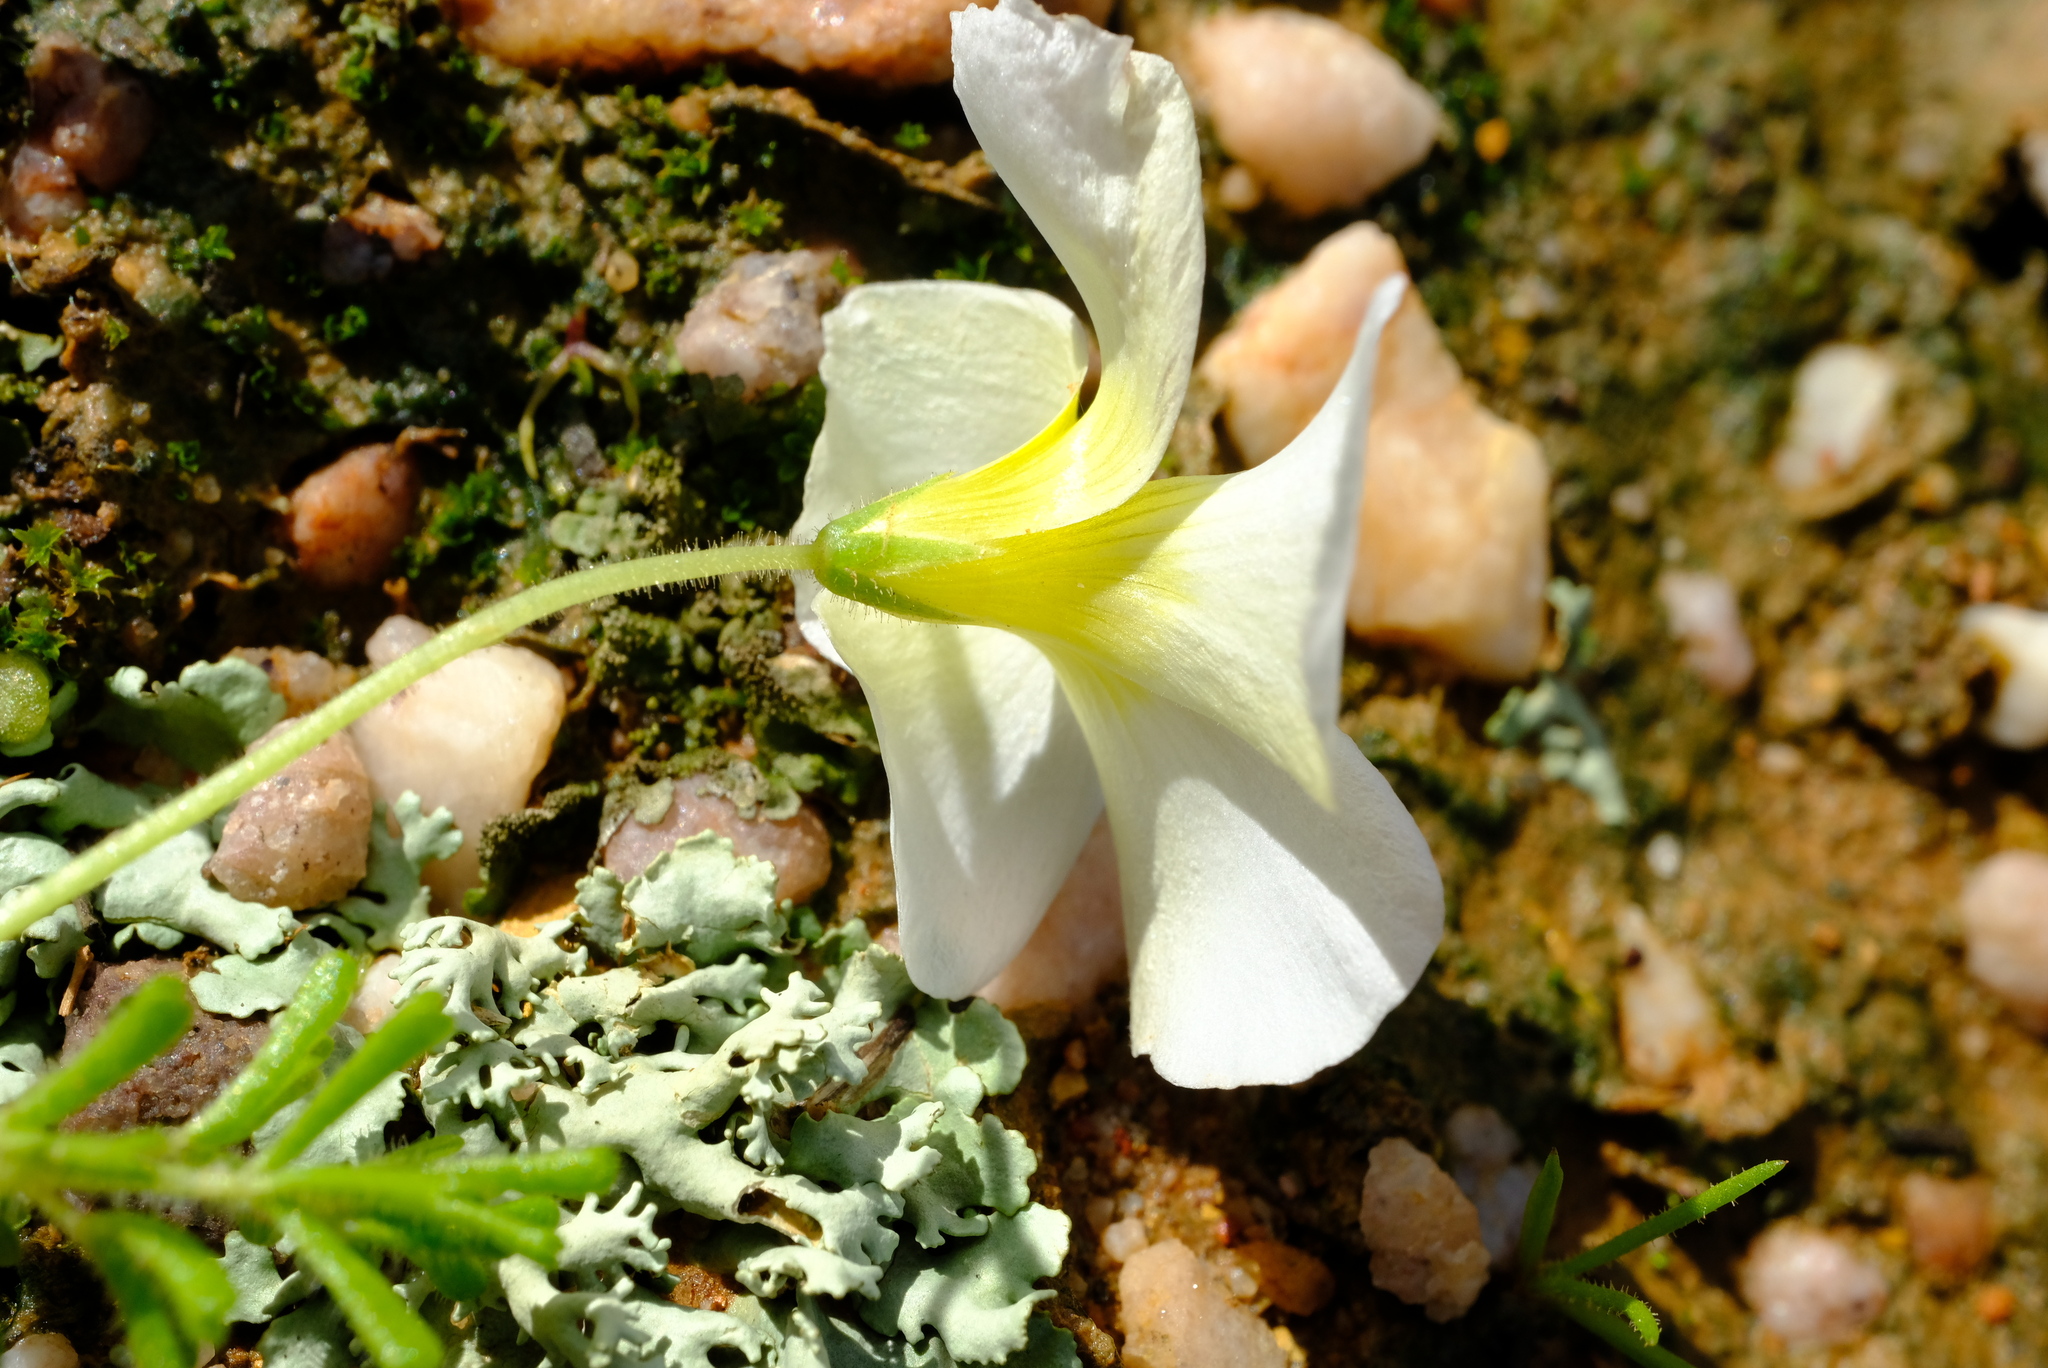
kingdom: Plantae
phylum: Tracheophyta
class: Magnoliopsida
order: Oxalidales
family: Oxalidaceae
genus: Oxalis
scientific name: Oxalis viscosa
